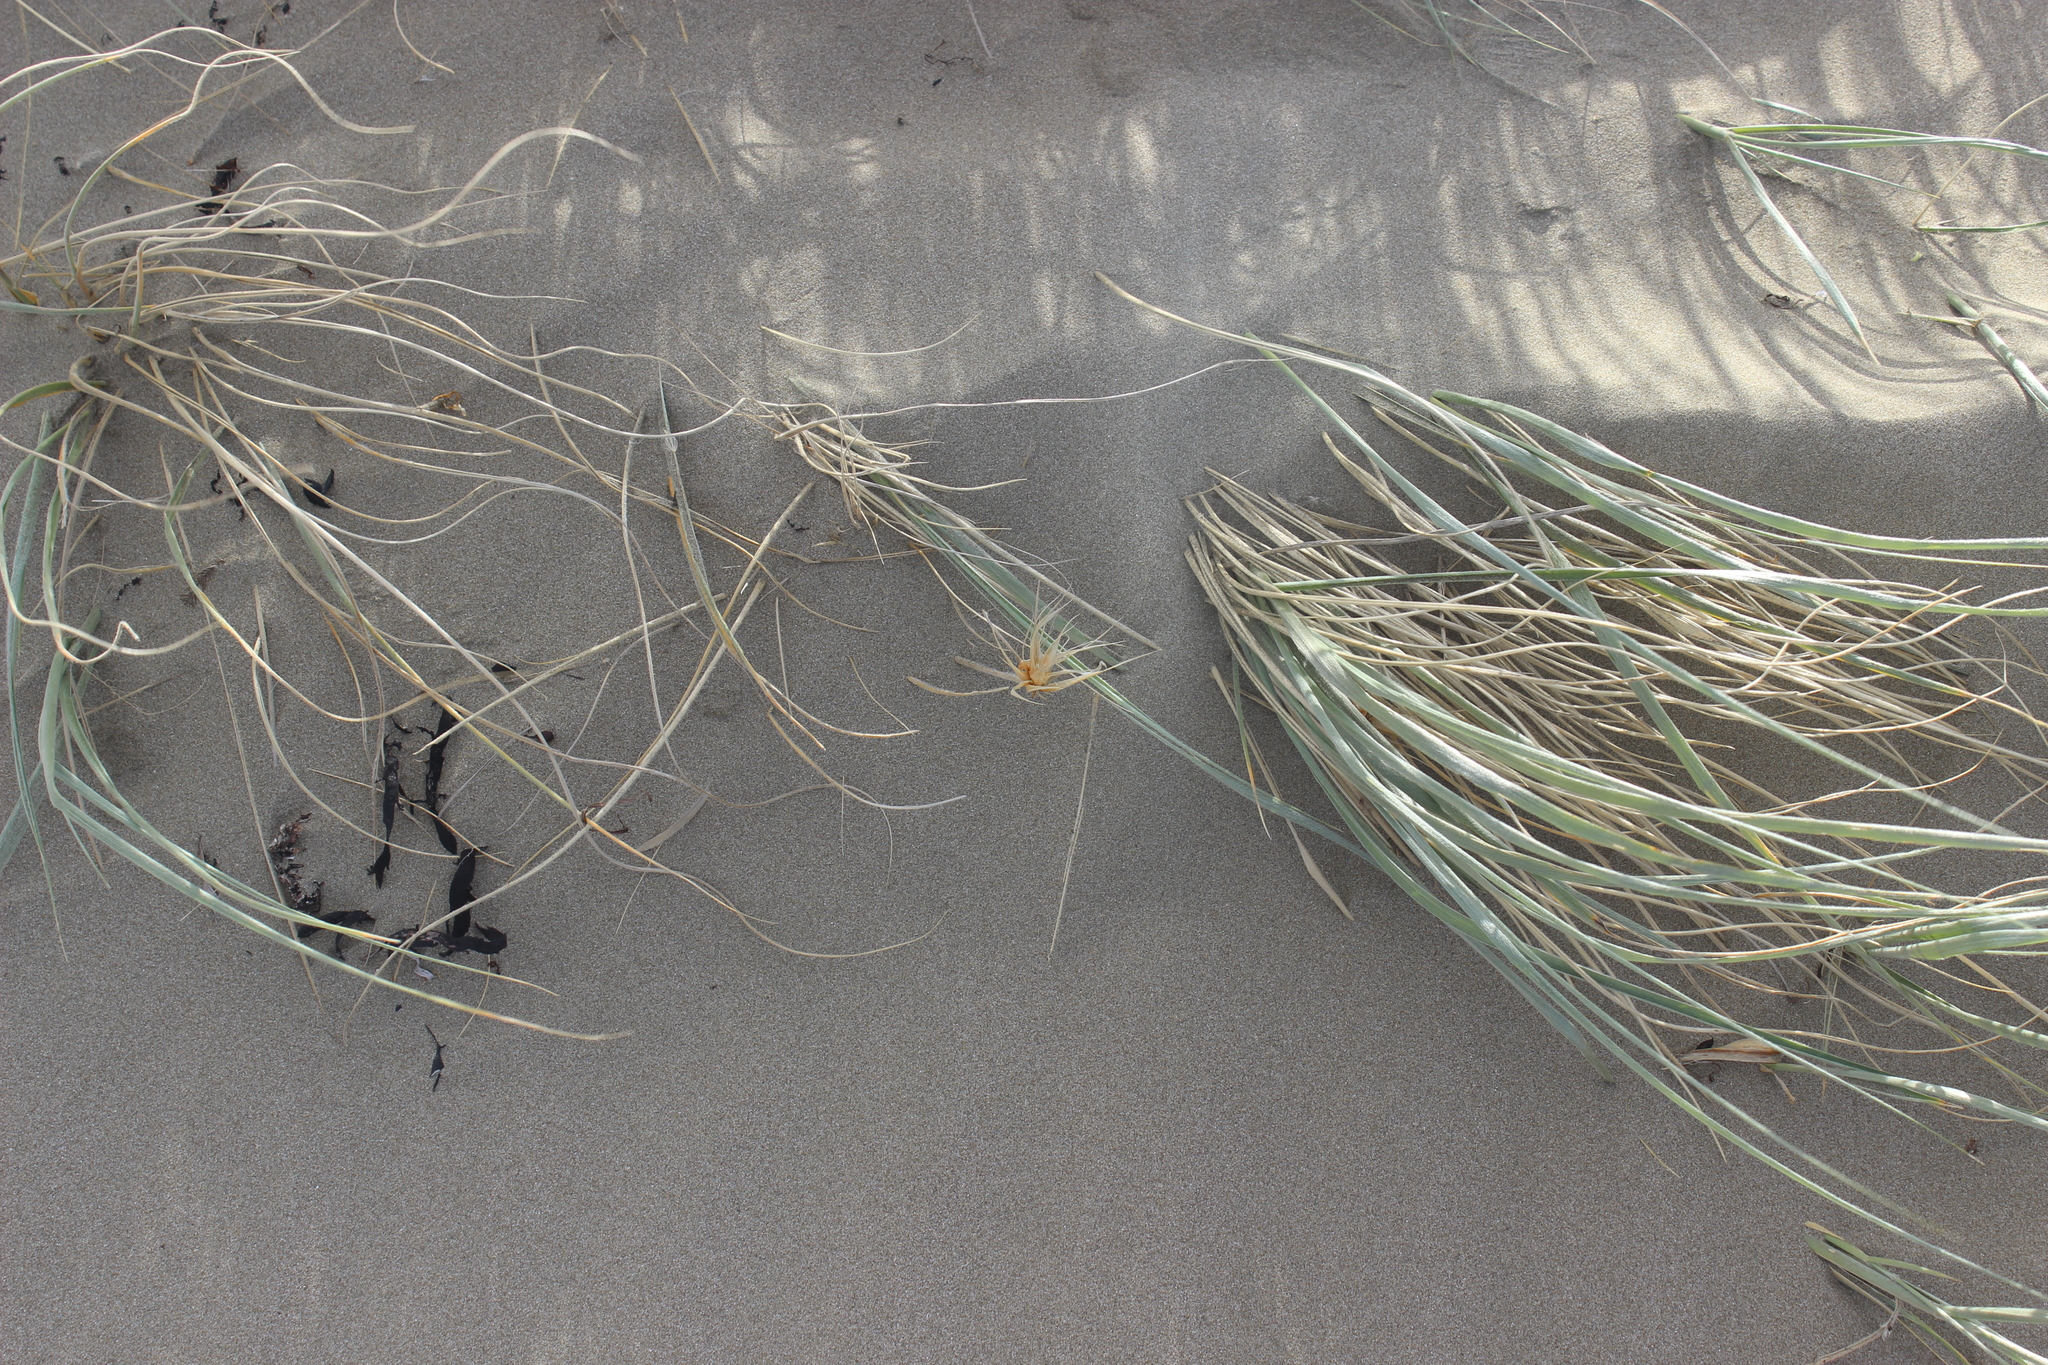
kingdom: Plantae
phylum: Tracheophyta
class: Liliopsida
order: Poales
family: Poaceae
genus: Spinifex
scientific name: Spinifex sericeus
